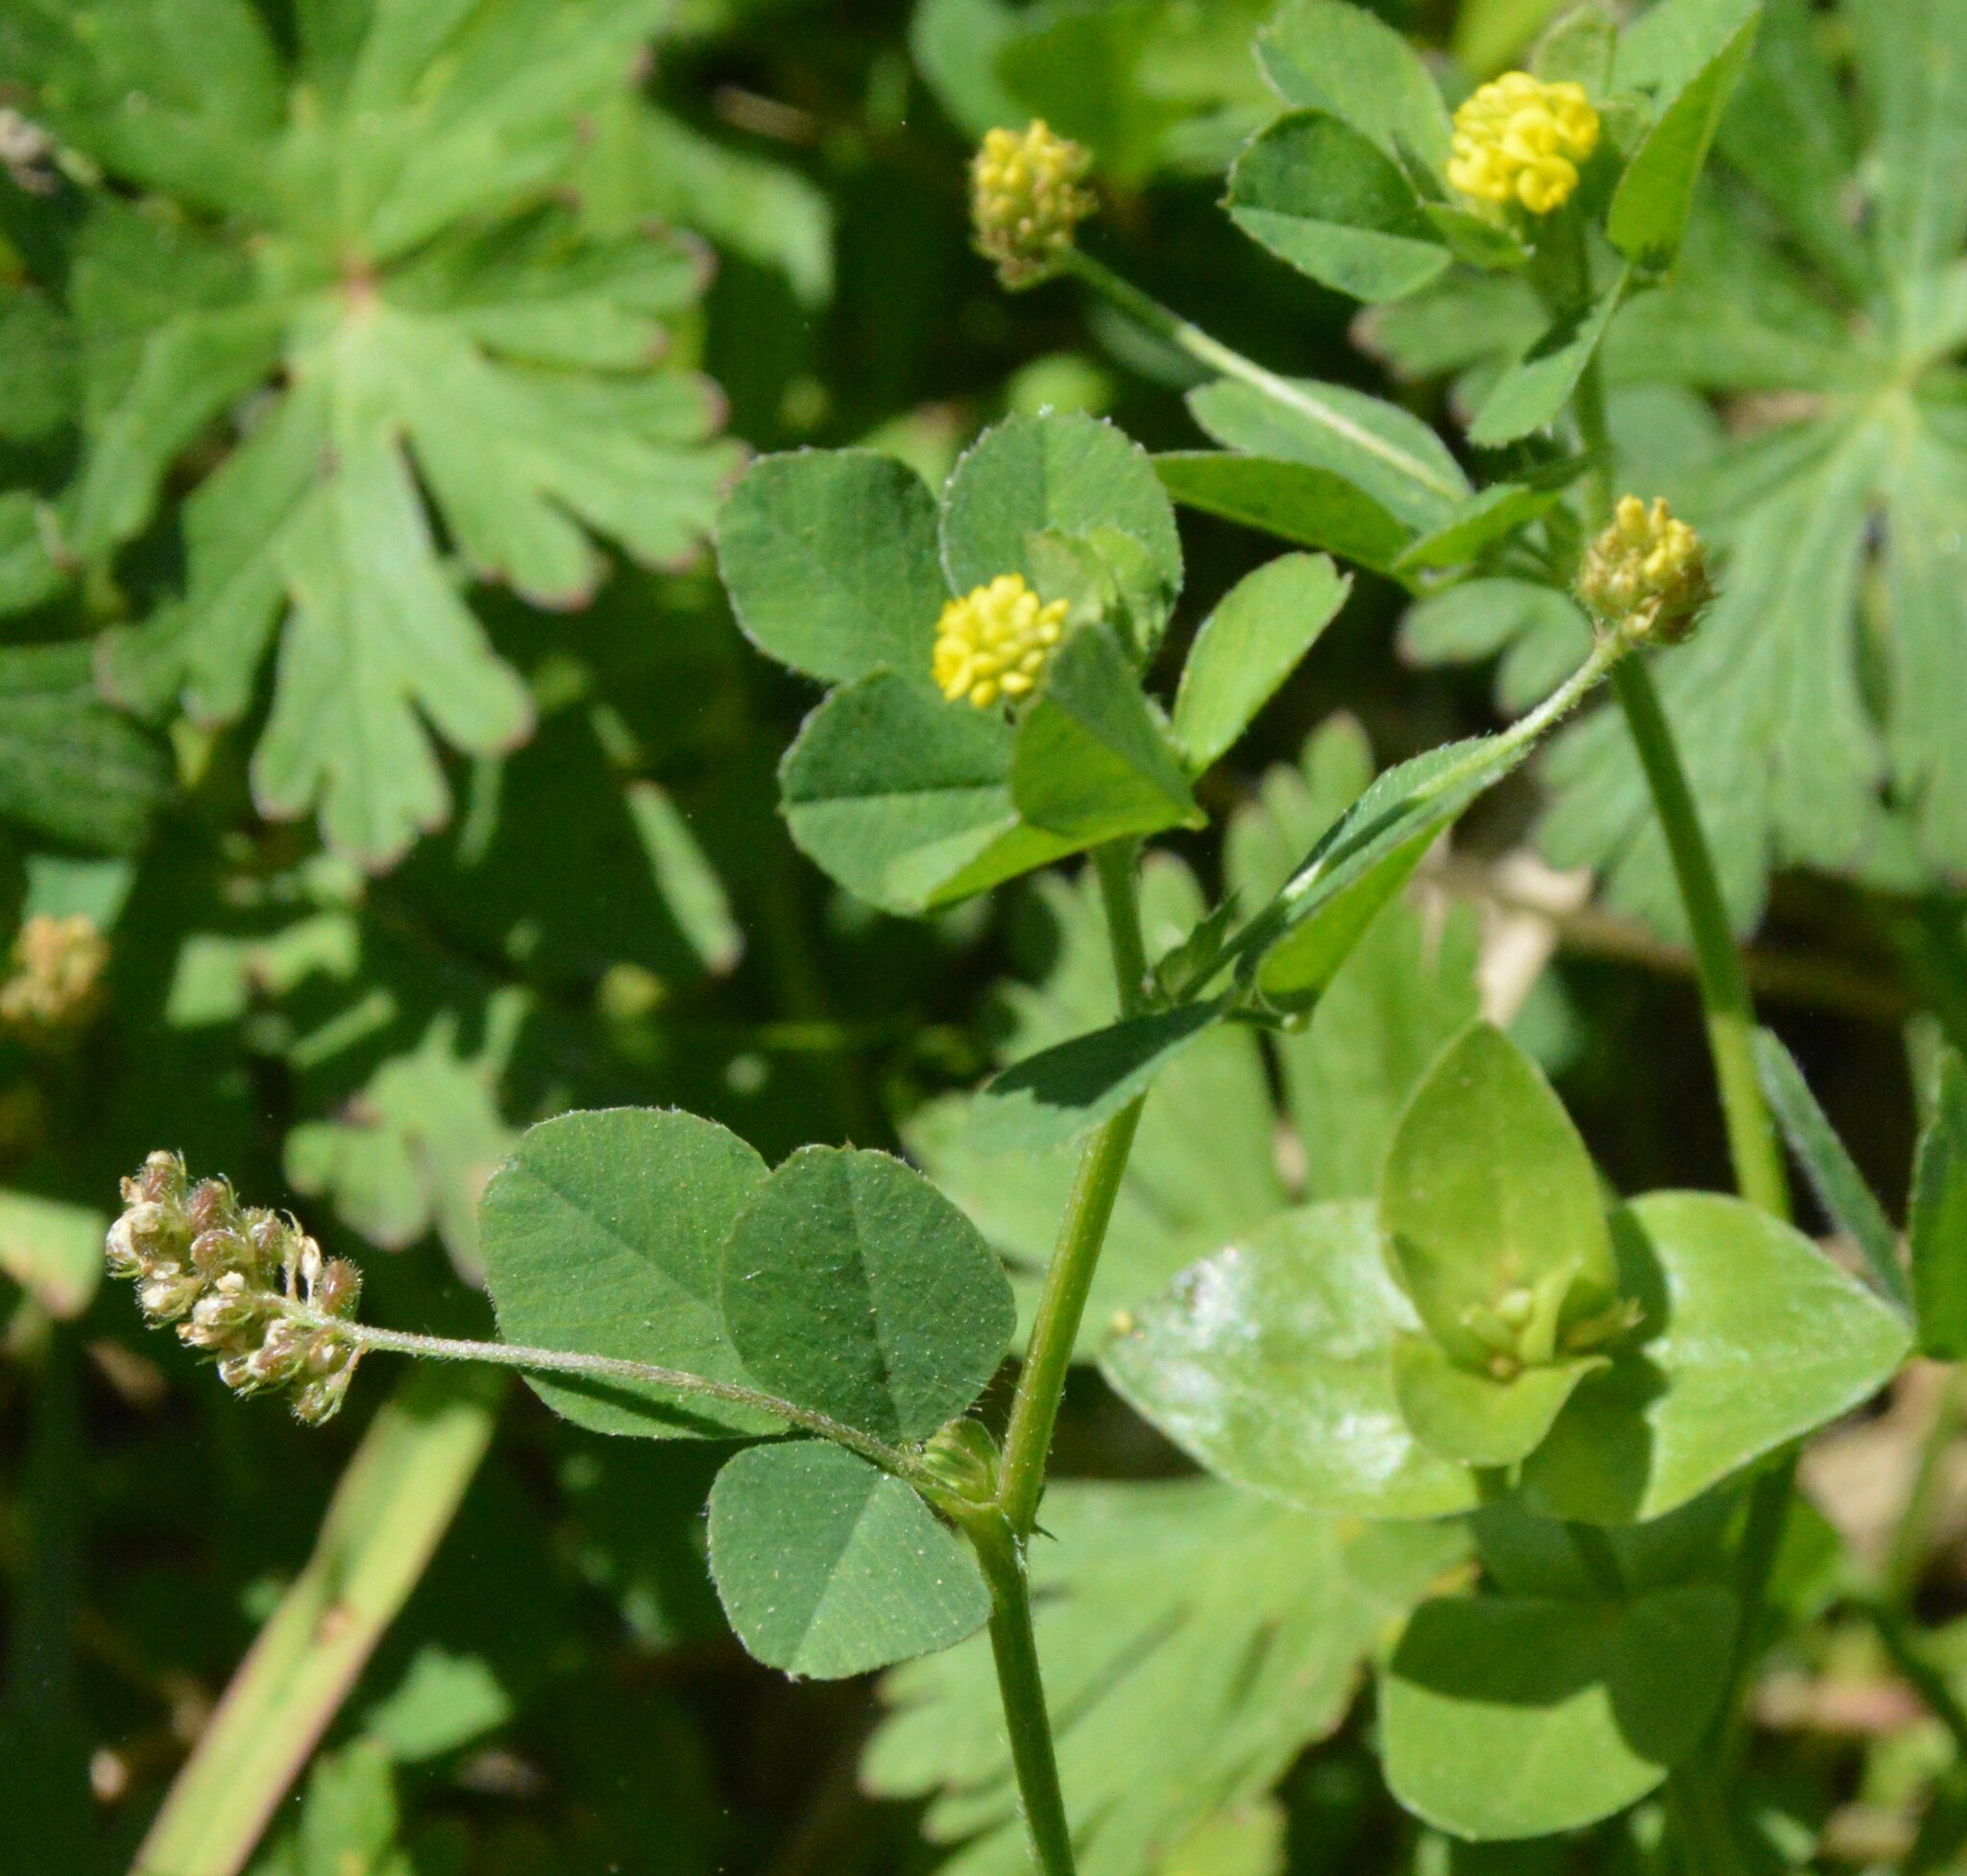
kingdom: Plantae
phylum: Tracheophyta
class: Magnoliopsida
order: Fabales
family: Fabaceae
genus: Medicago
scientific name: Medicago lupulina
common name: Black medick
